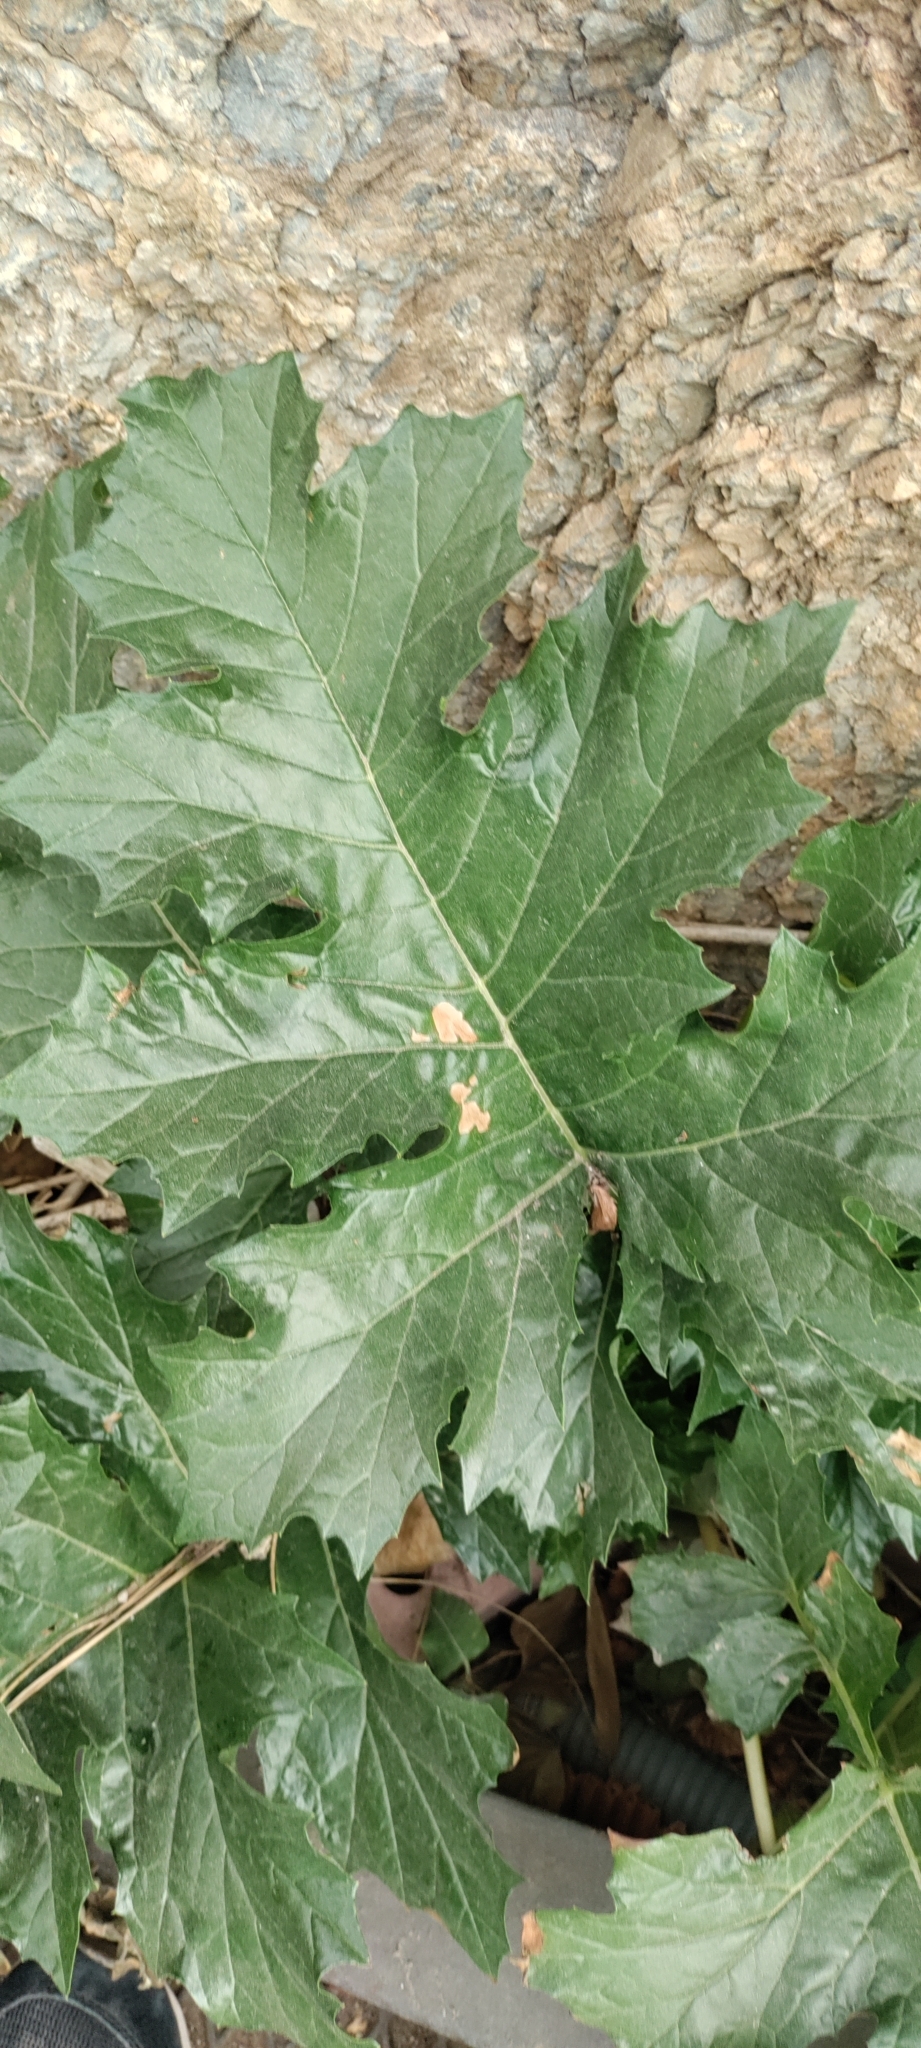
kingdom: Plantae
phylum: Tracheophyta
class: Magnoliopsida
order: Lamiales
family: Acanthaceae
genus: Acanthus
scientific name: Acanthus mollis
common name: Bear's-breech
